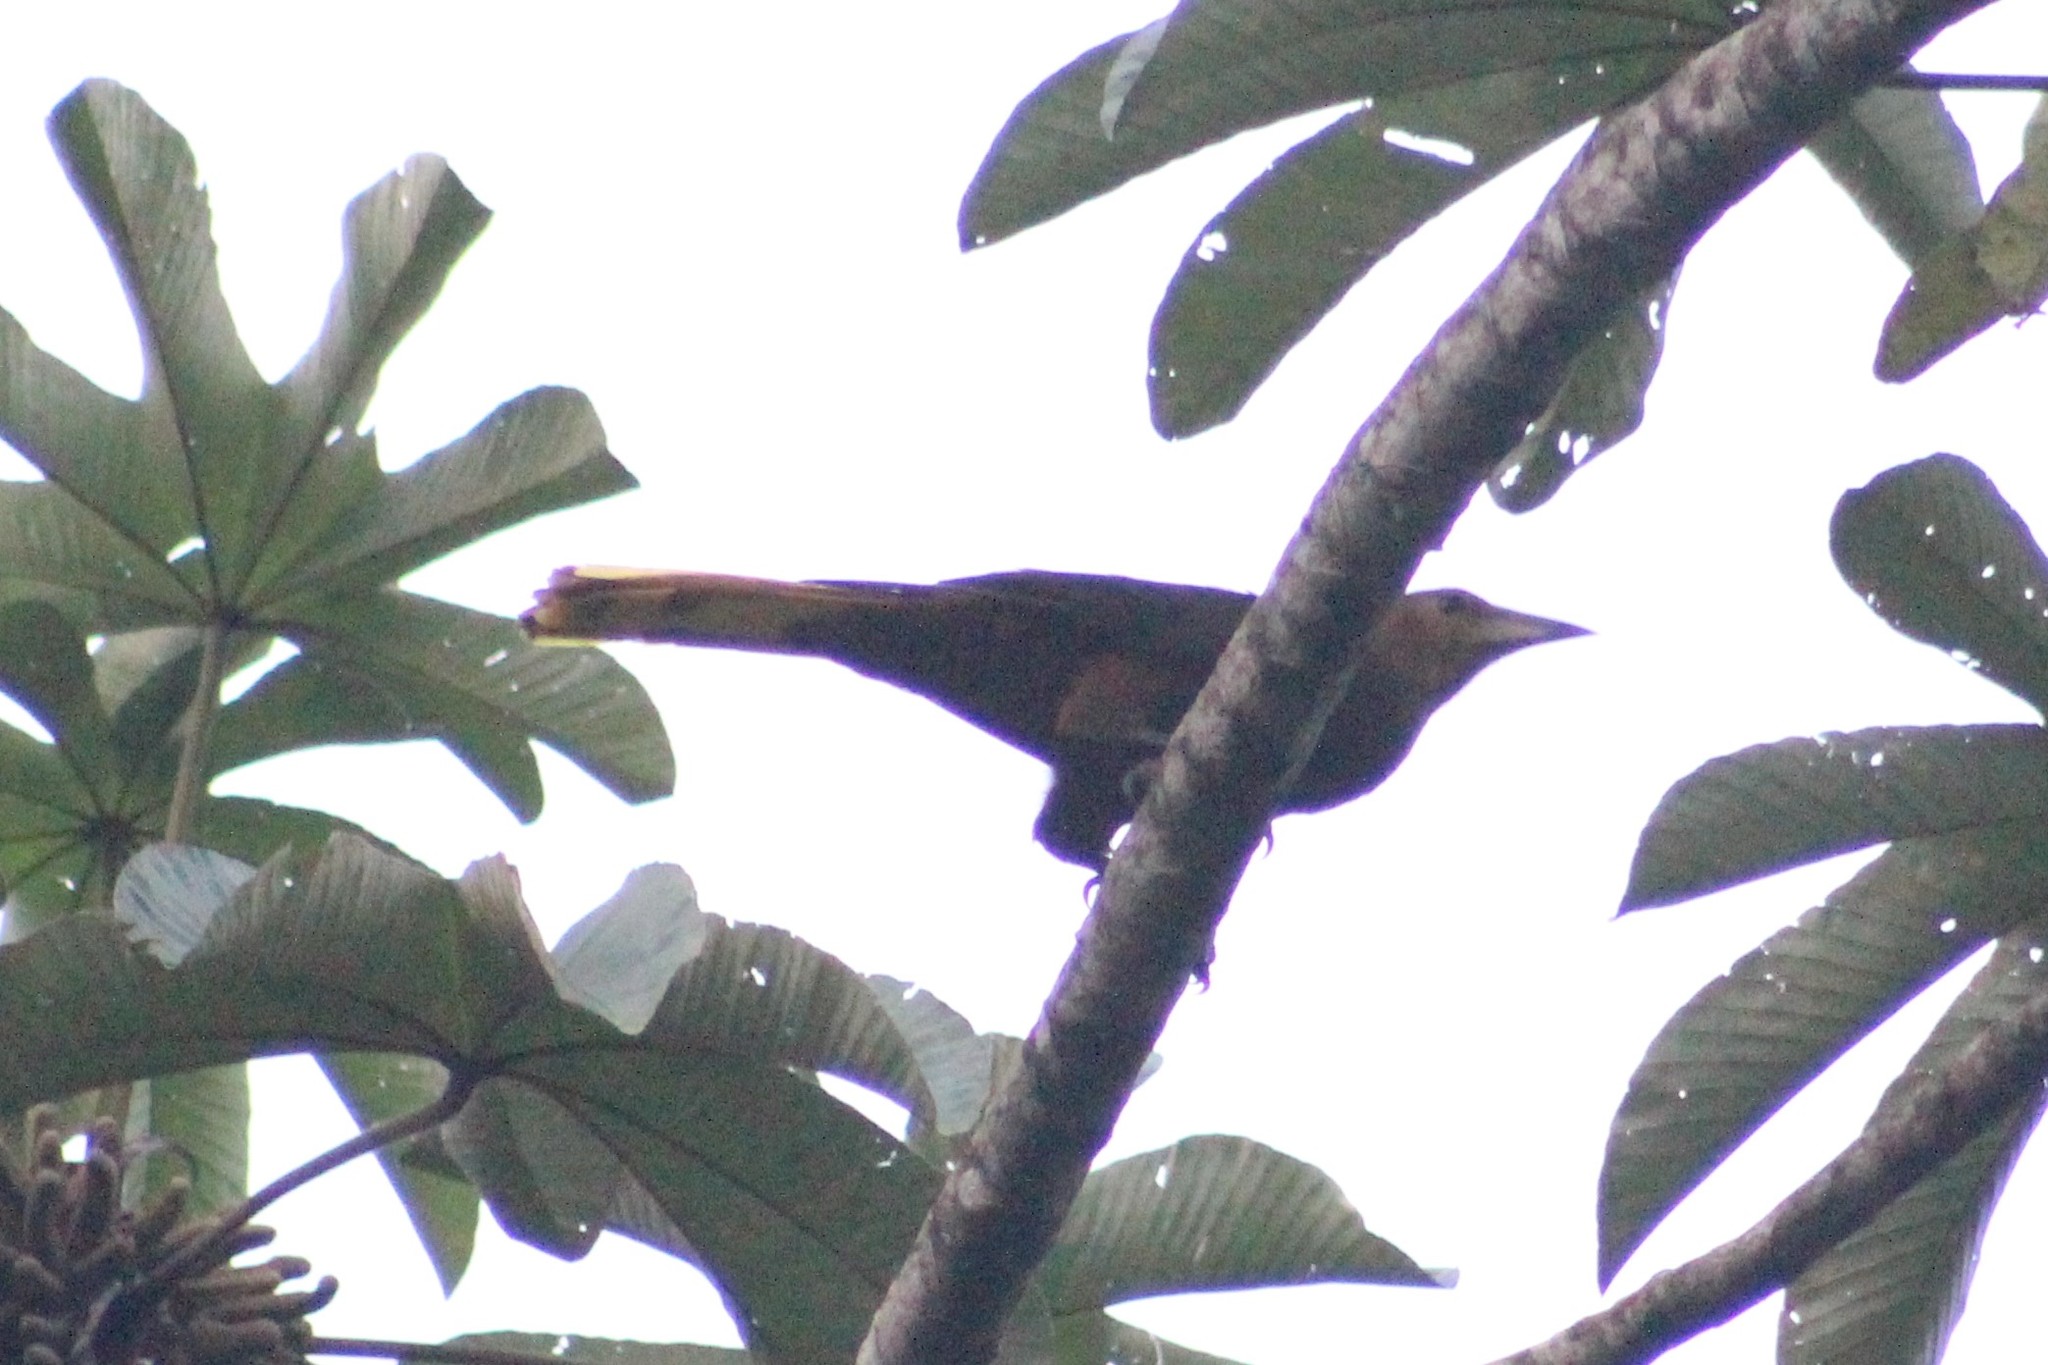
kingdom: Animalia
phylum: Chordata
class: Aves
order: Passeriformes
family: Icteridae
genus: Psarocolius
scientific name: Psarocolius angustifrons
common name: Russet-backed oropendola
